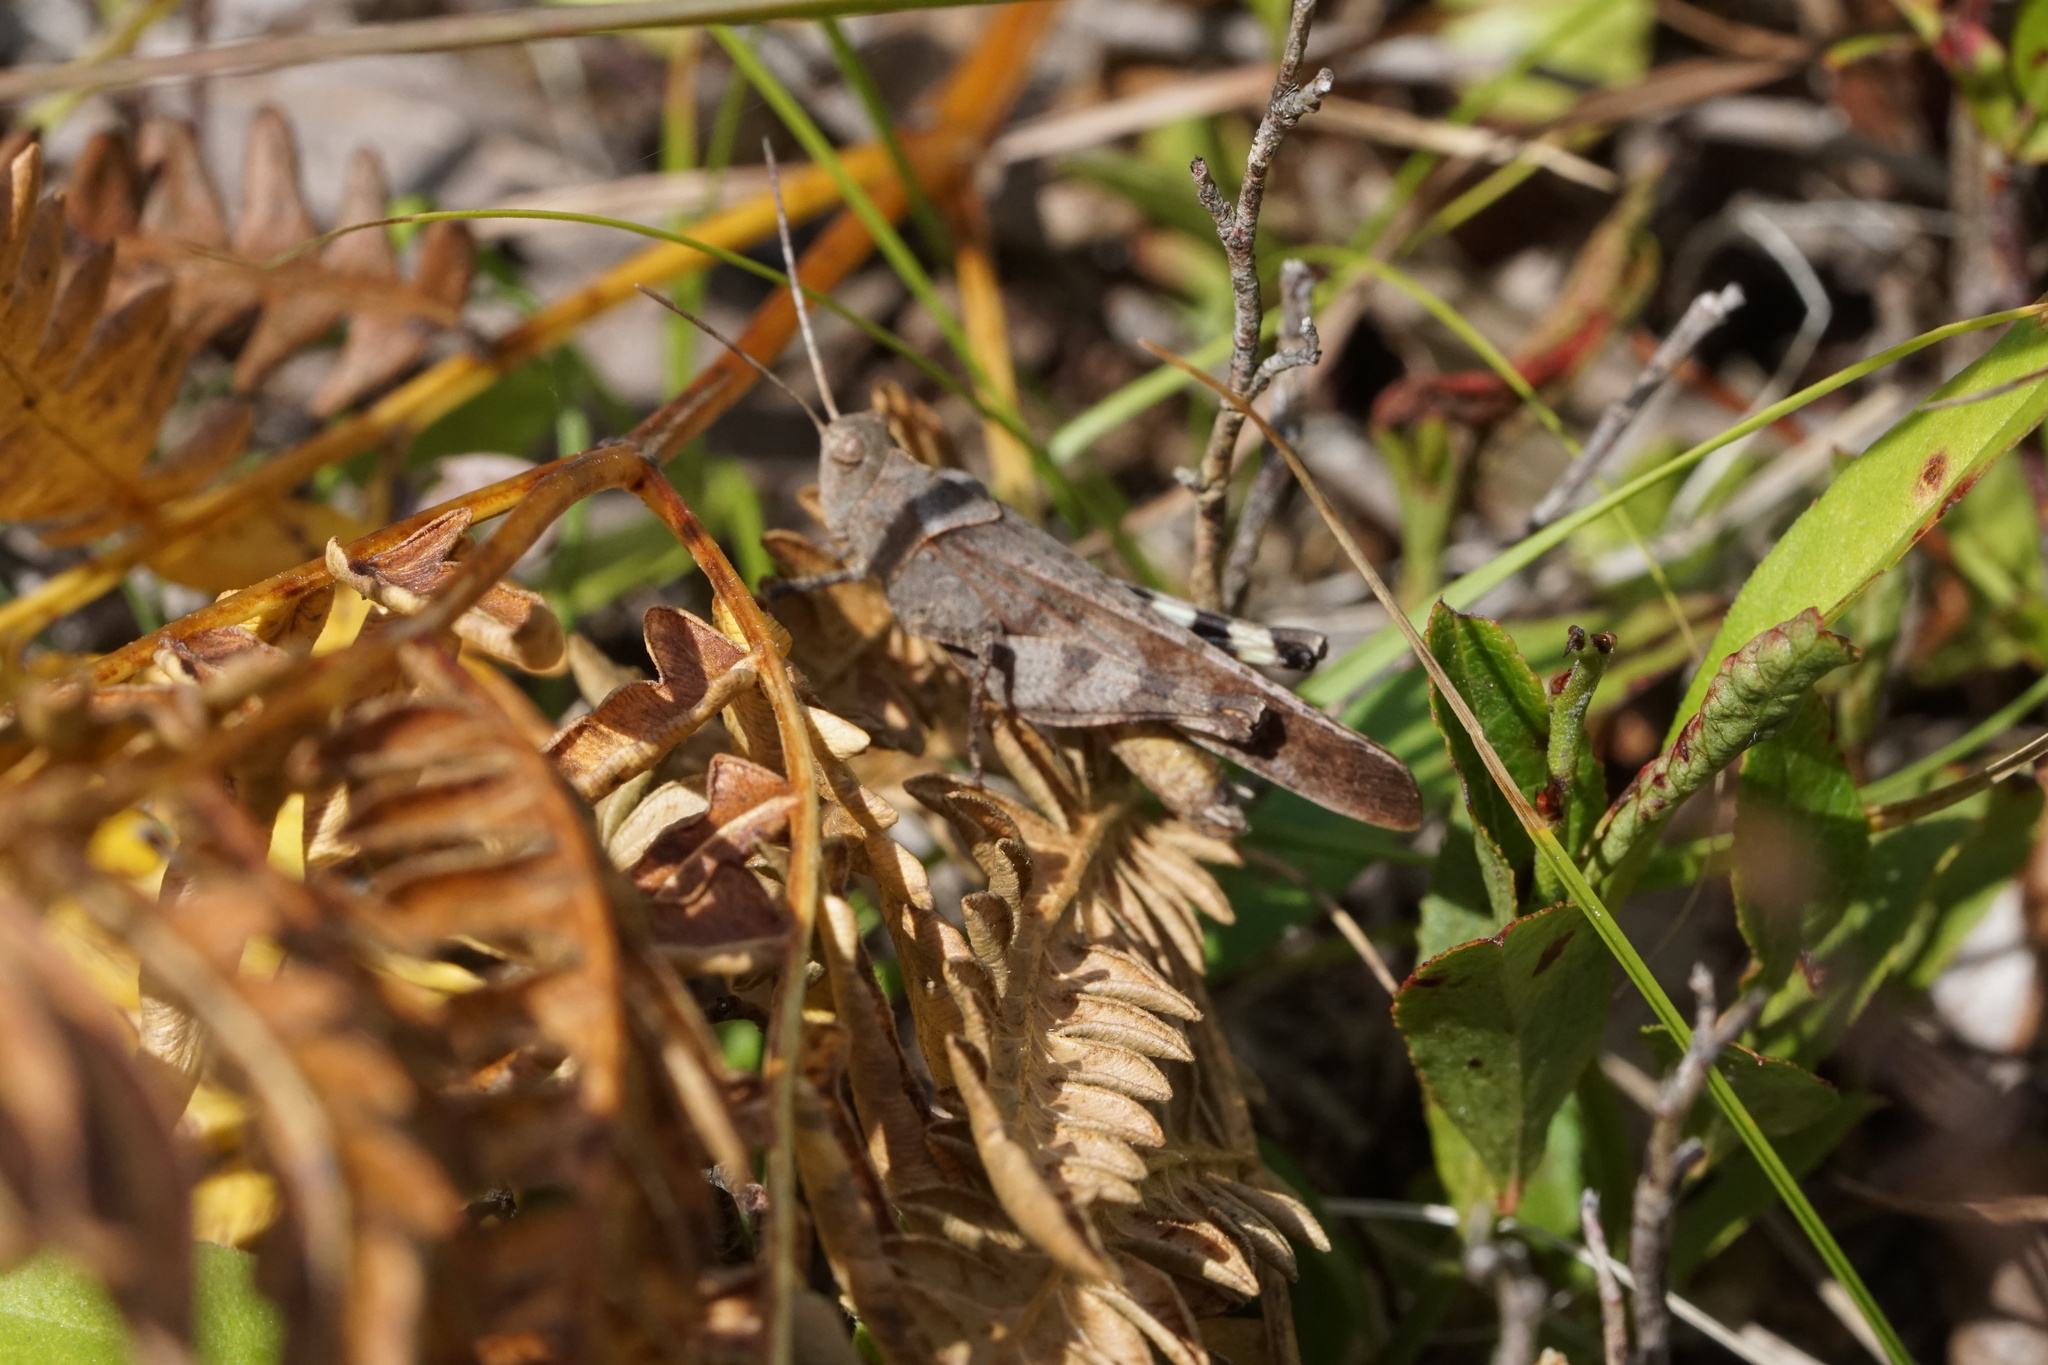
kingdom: Animalia
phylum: Arthropoda
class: Insecta
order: Orthoptera
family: Acrididae
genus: Spharagemon
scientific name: Spharagemon bolli
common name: Boll's grasshopper
